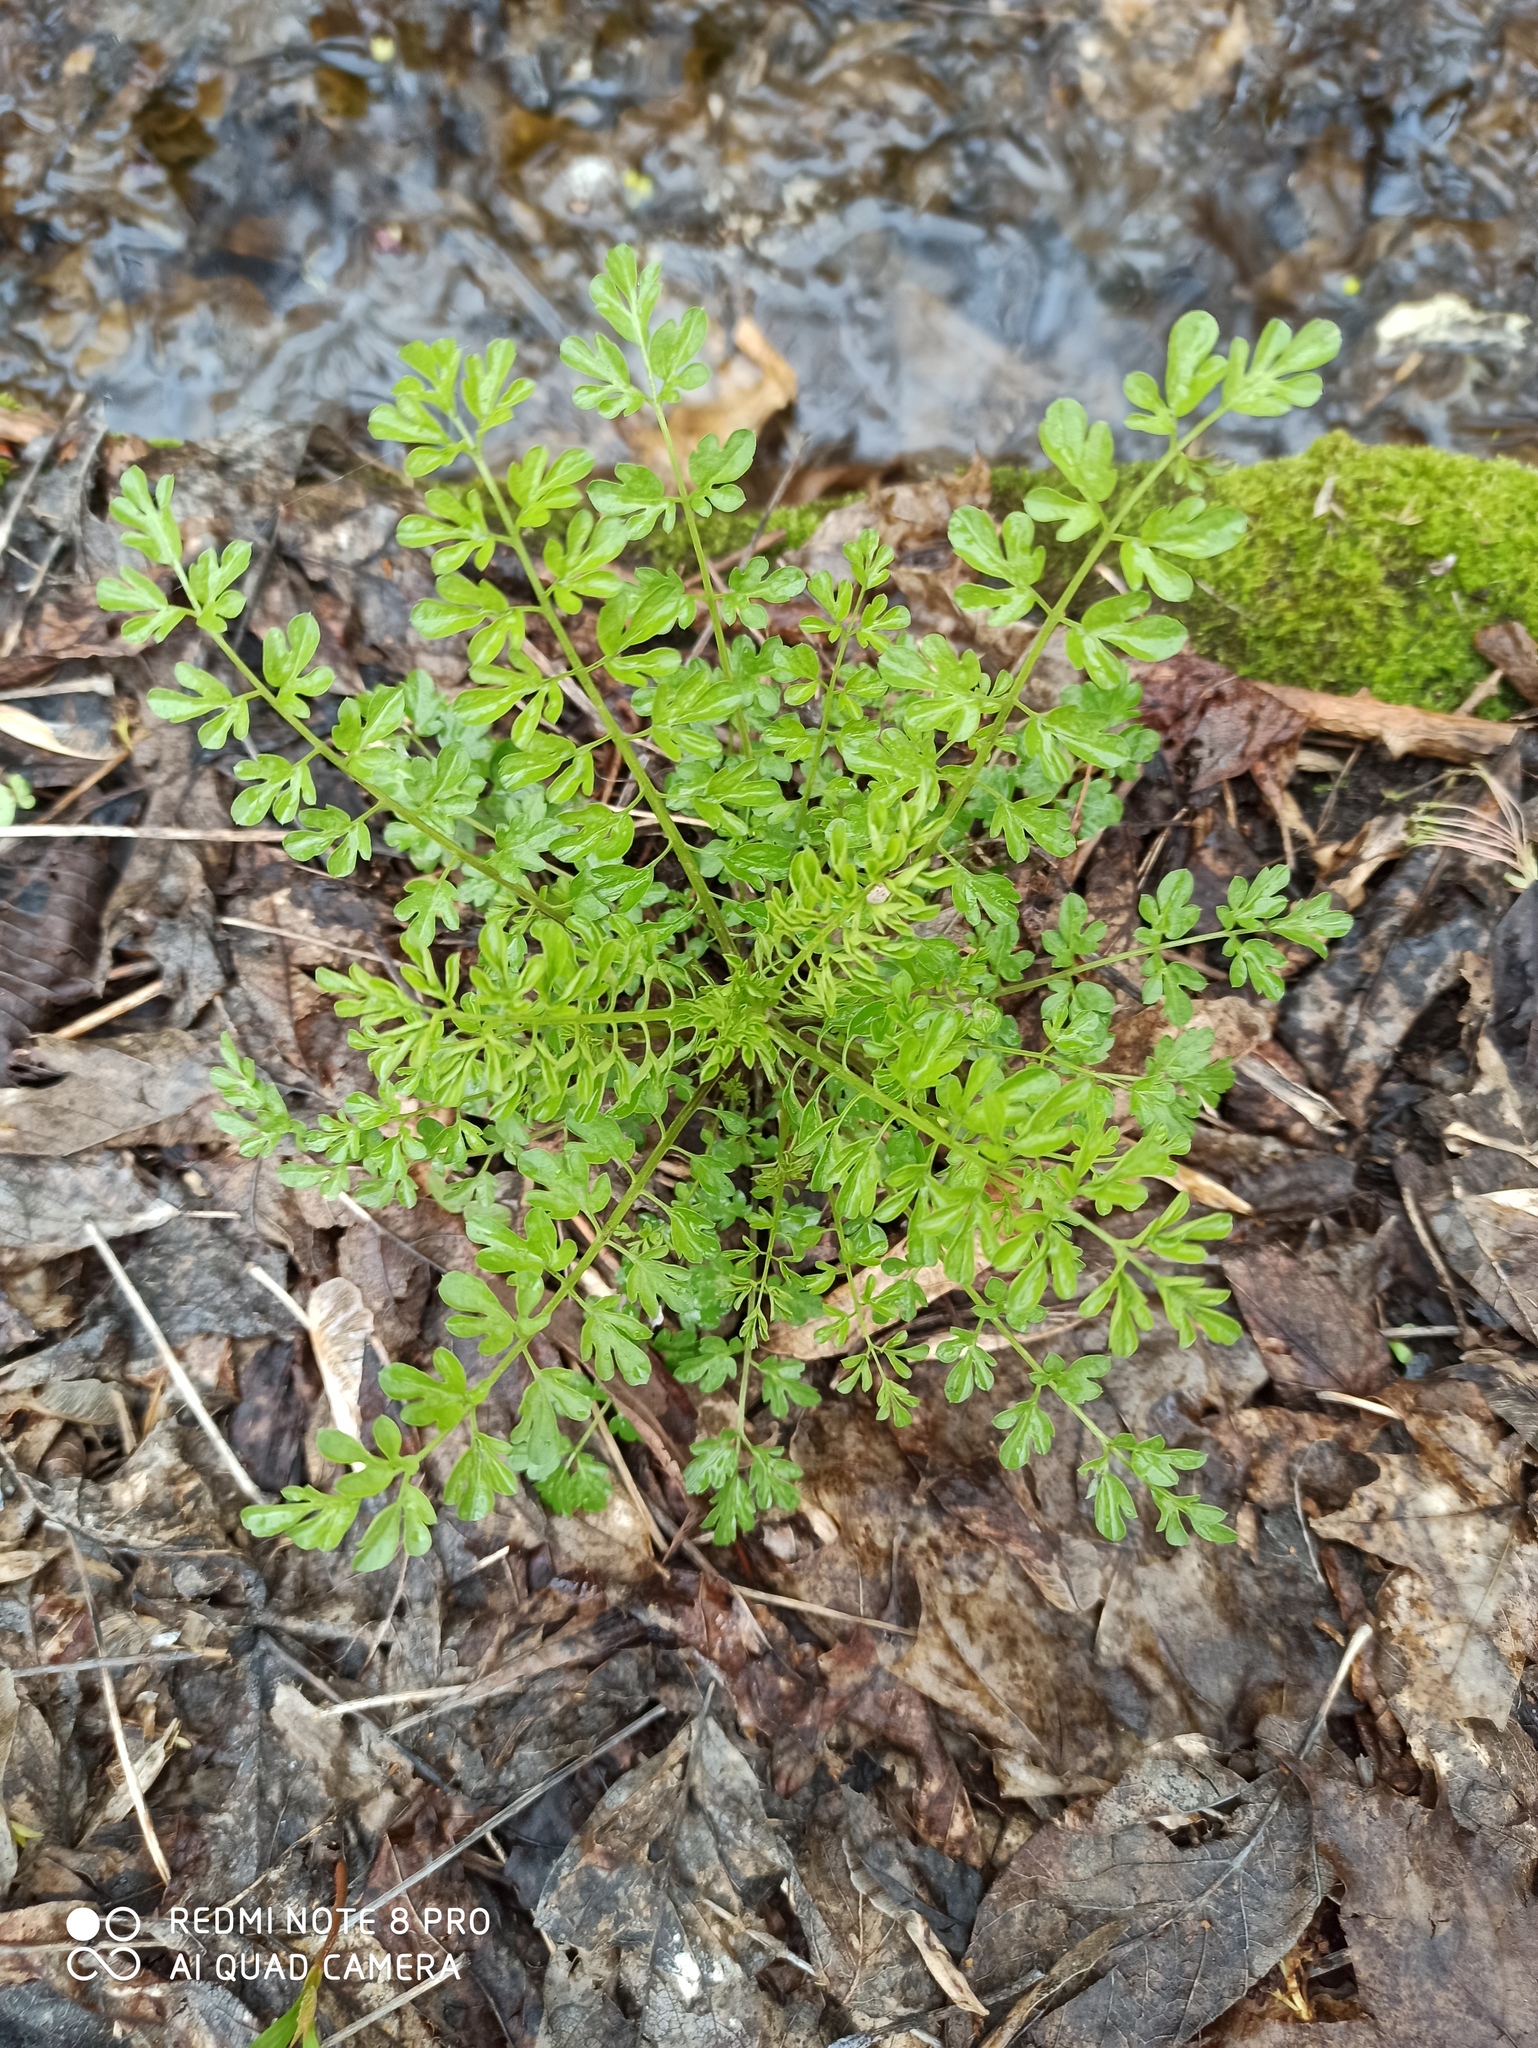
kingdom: Plantae
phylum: Tracheophyta
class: Magnoliopsida
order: Brassicales
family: Brassicaceae
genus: Cardamine
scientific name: Cardamine impatiens
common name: Narrow-leaved bitter-cress
